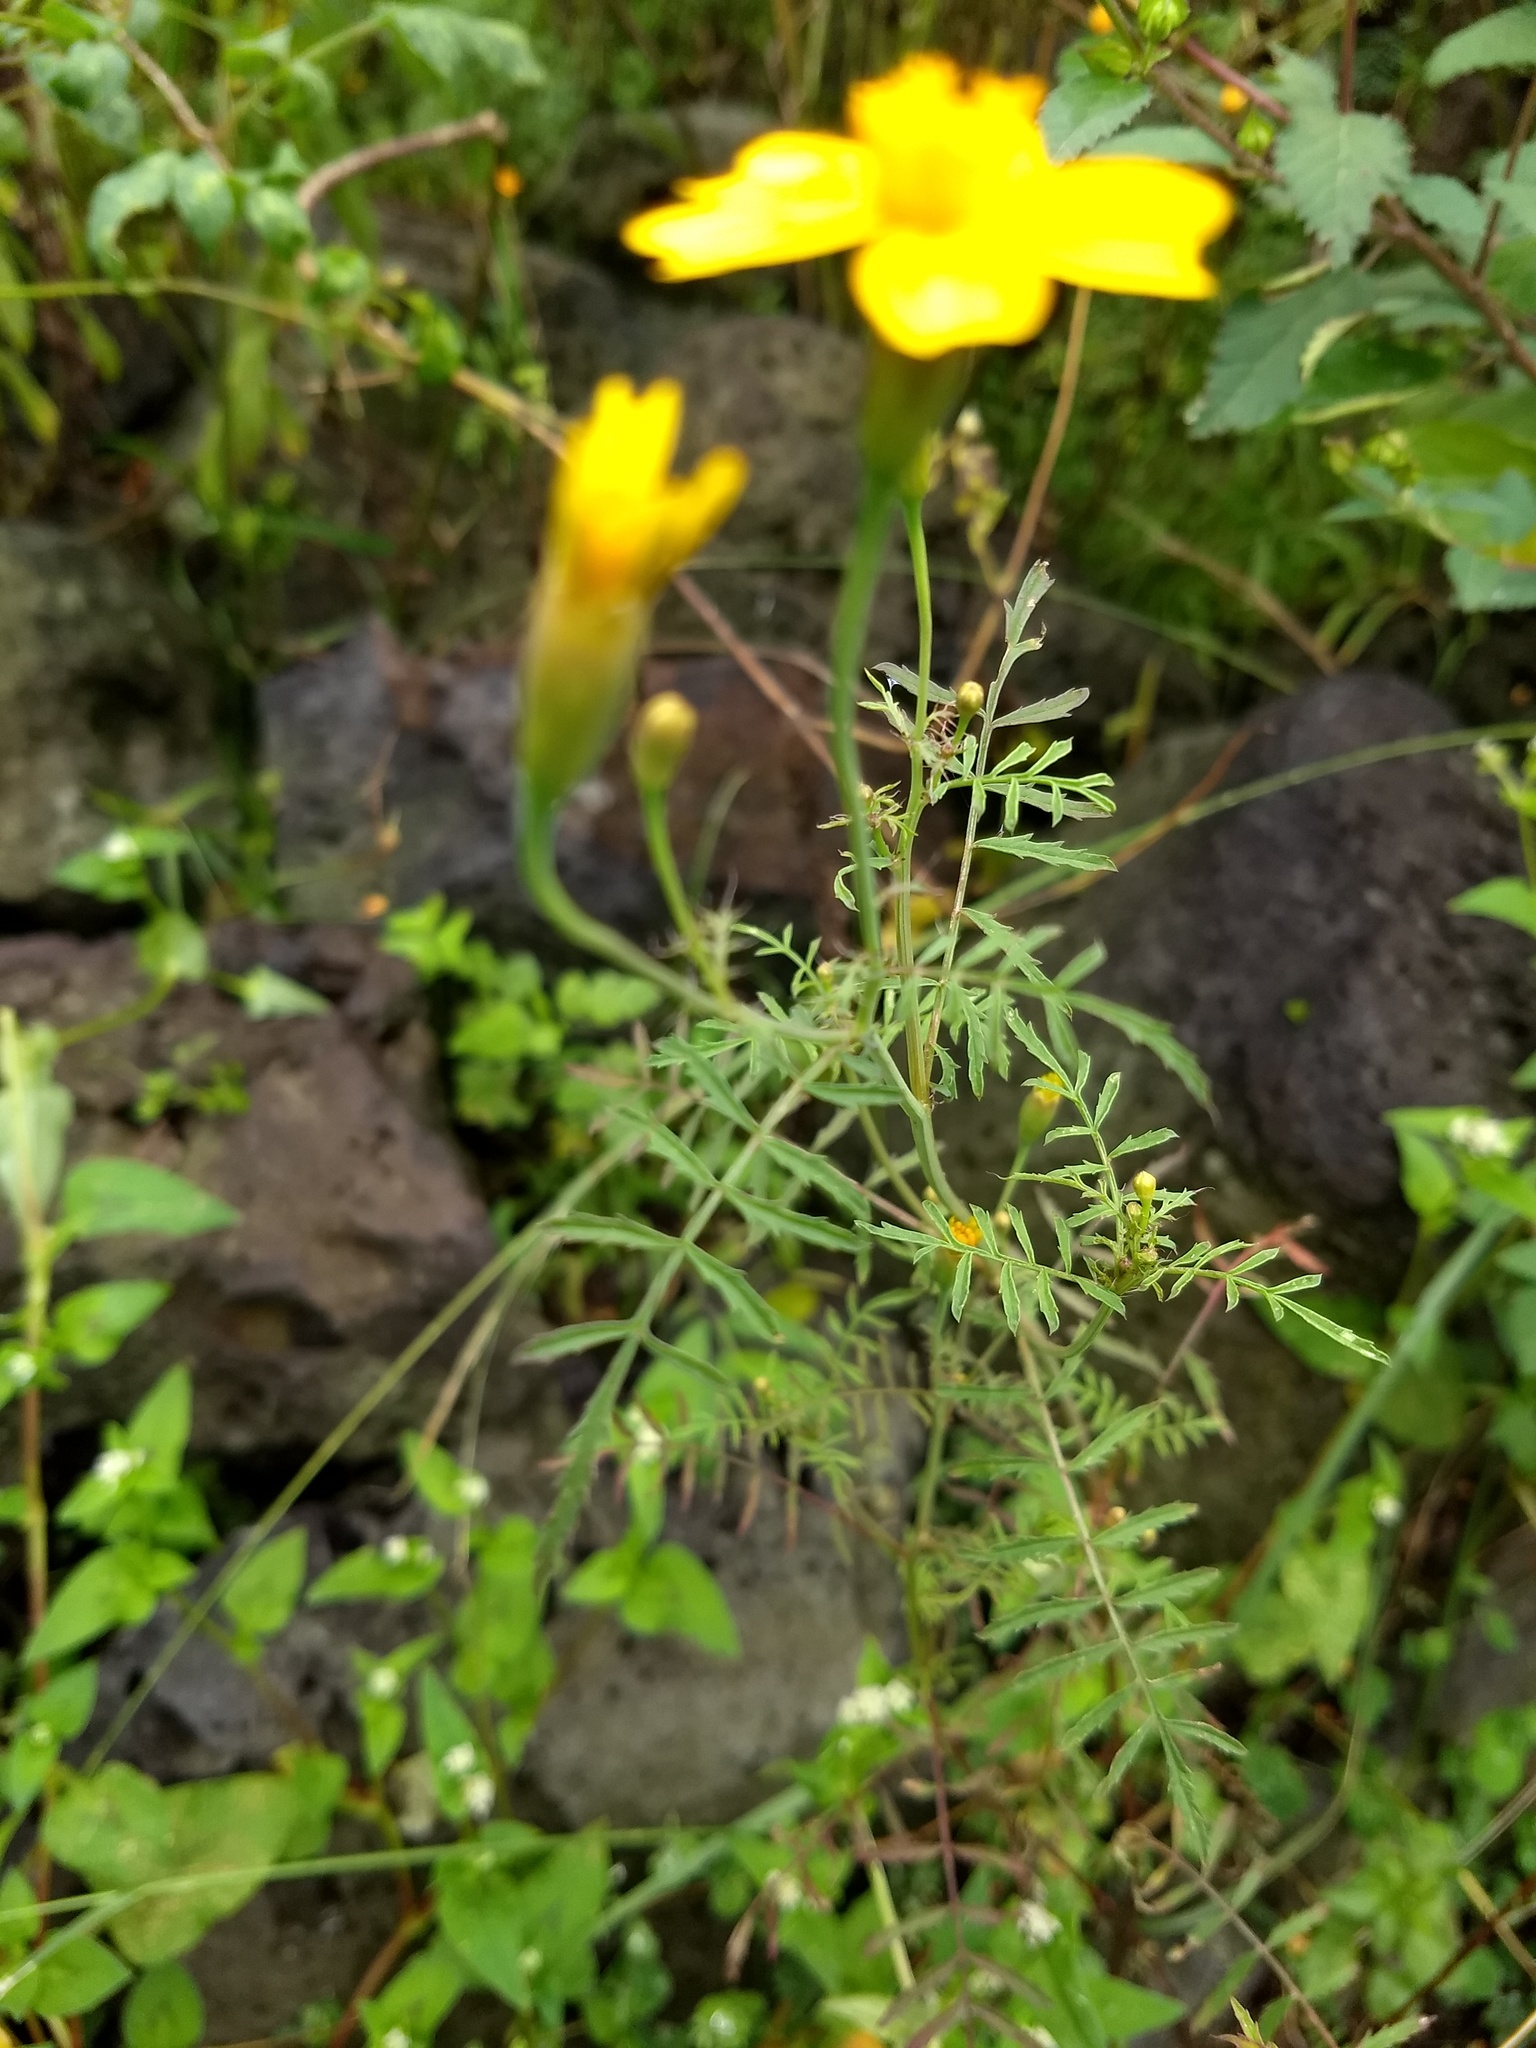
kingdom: Plantae
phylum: Tracheophyta
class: Magnoliopsida
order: Asterales
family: Asteraceae
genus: Tagetes
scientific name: Tagetes lunulata
